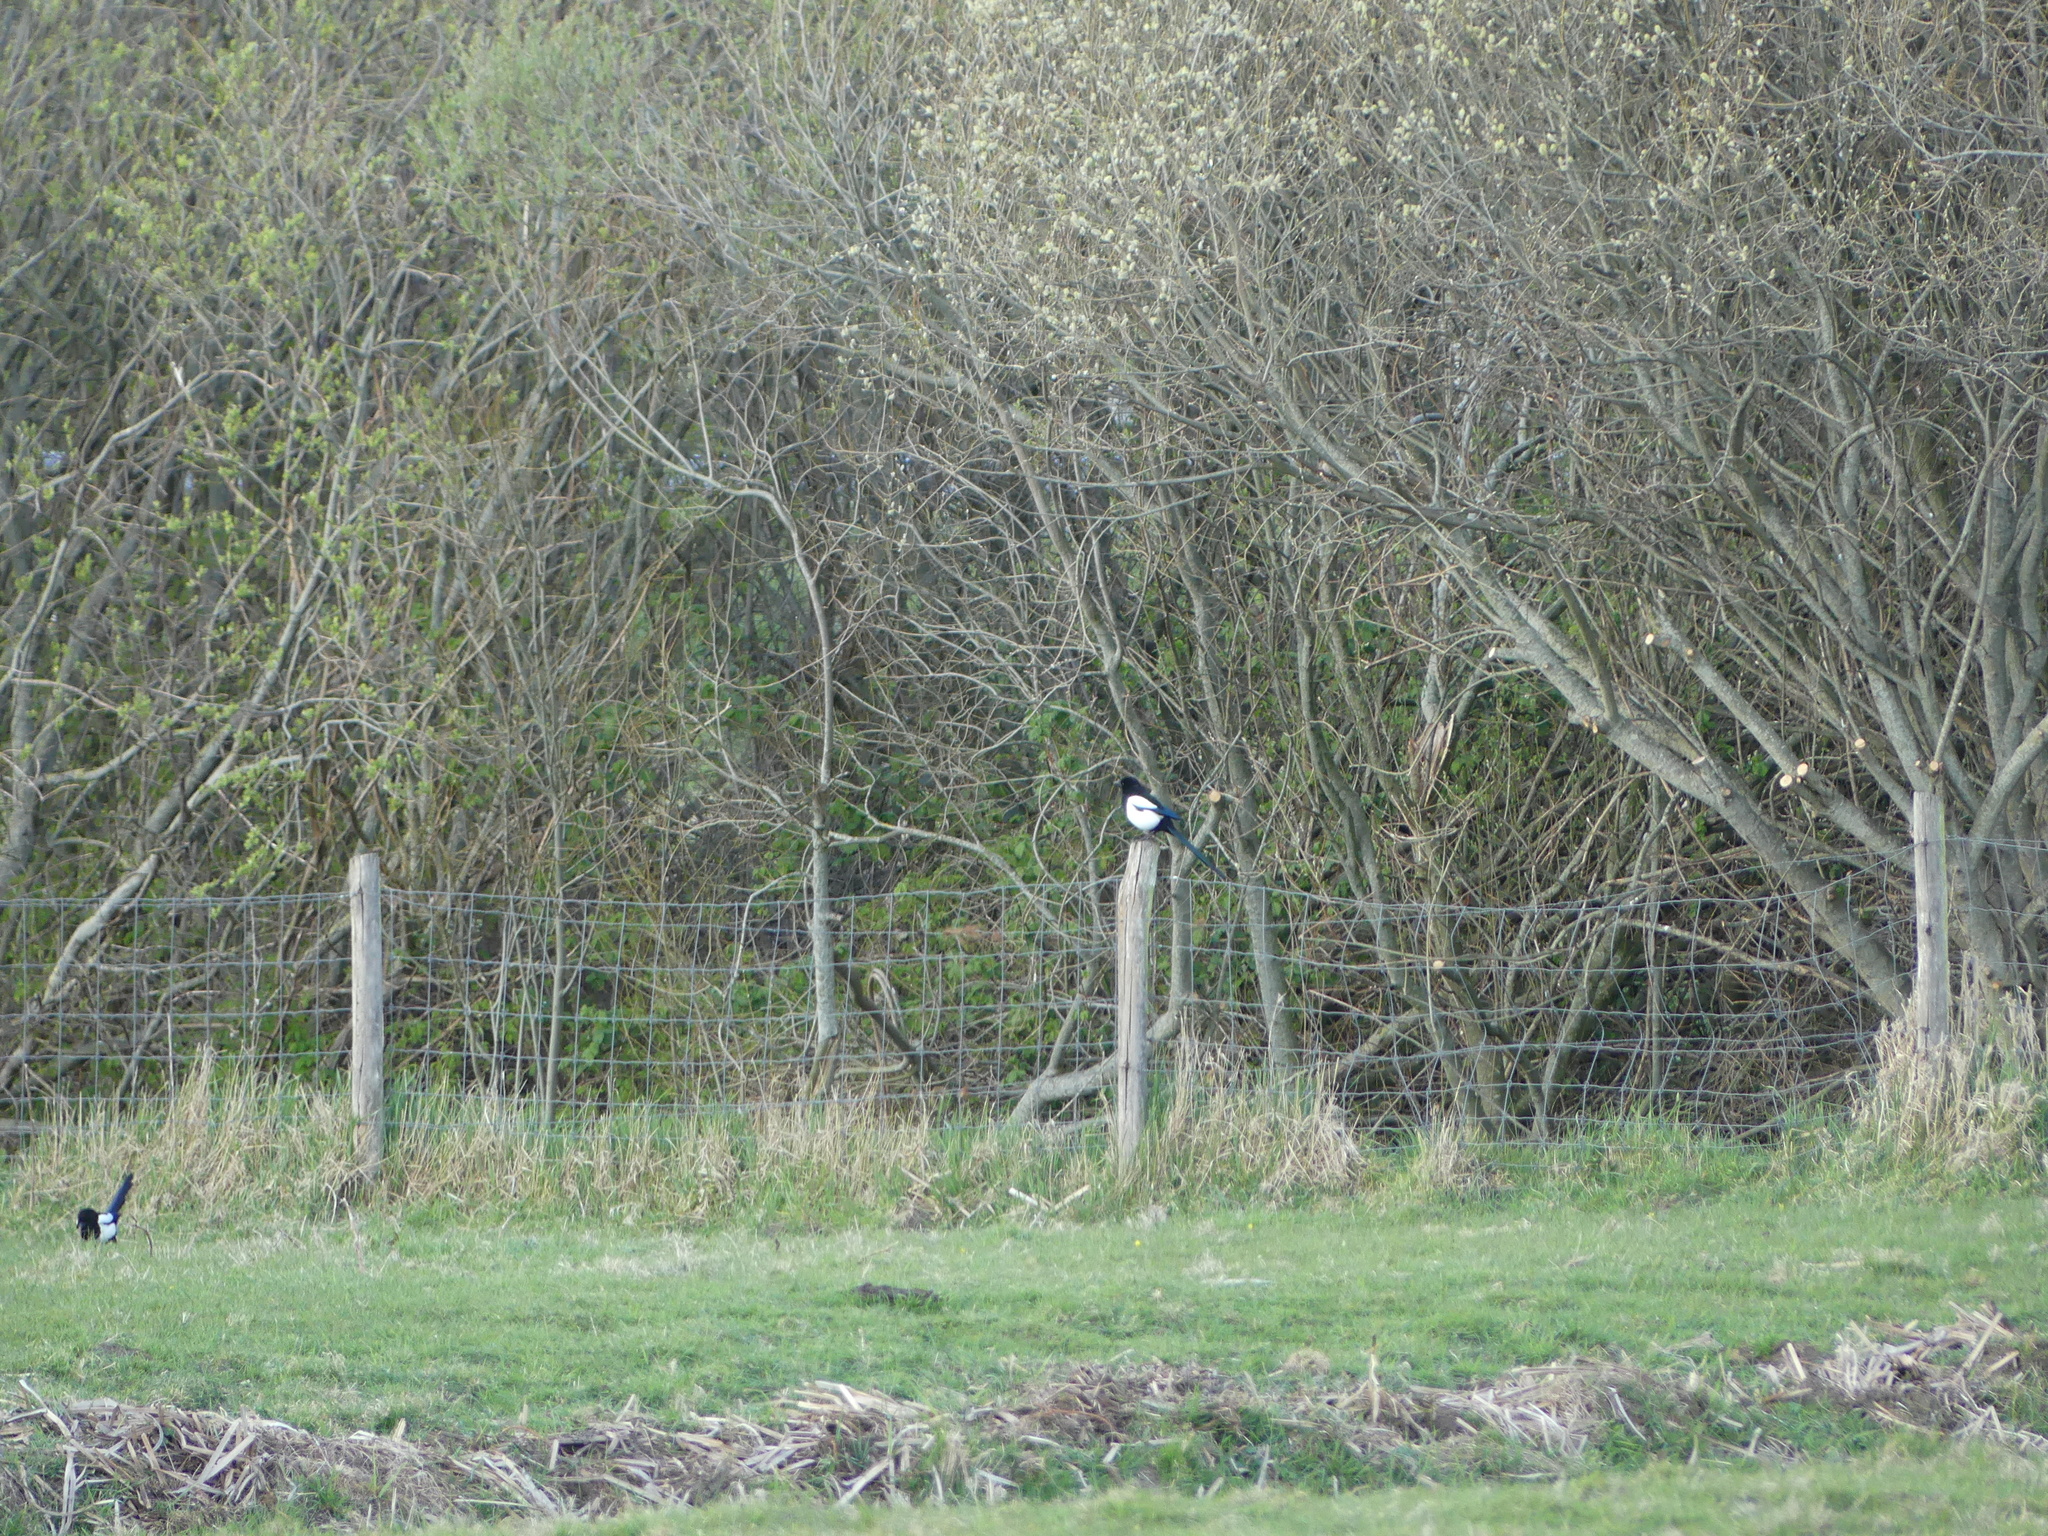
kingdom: Animalia
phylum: Chordata
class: Aves
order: Passeriformes
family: Corvidae
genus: Pica
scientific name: Pica pica
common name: Eurasian magpie
